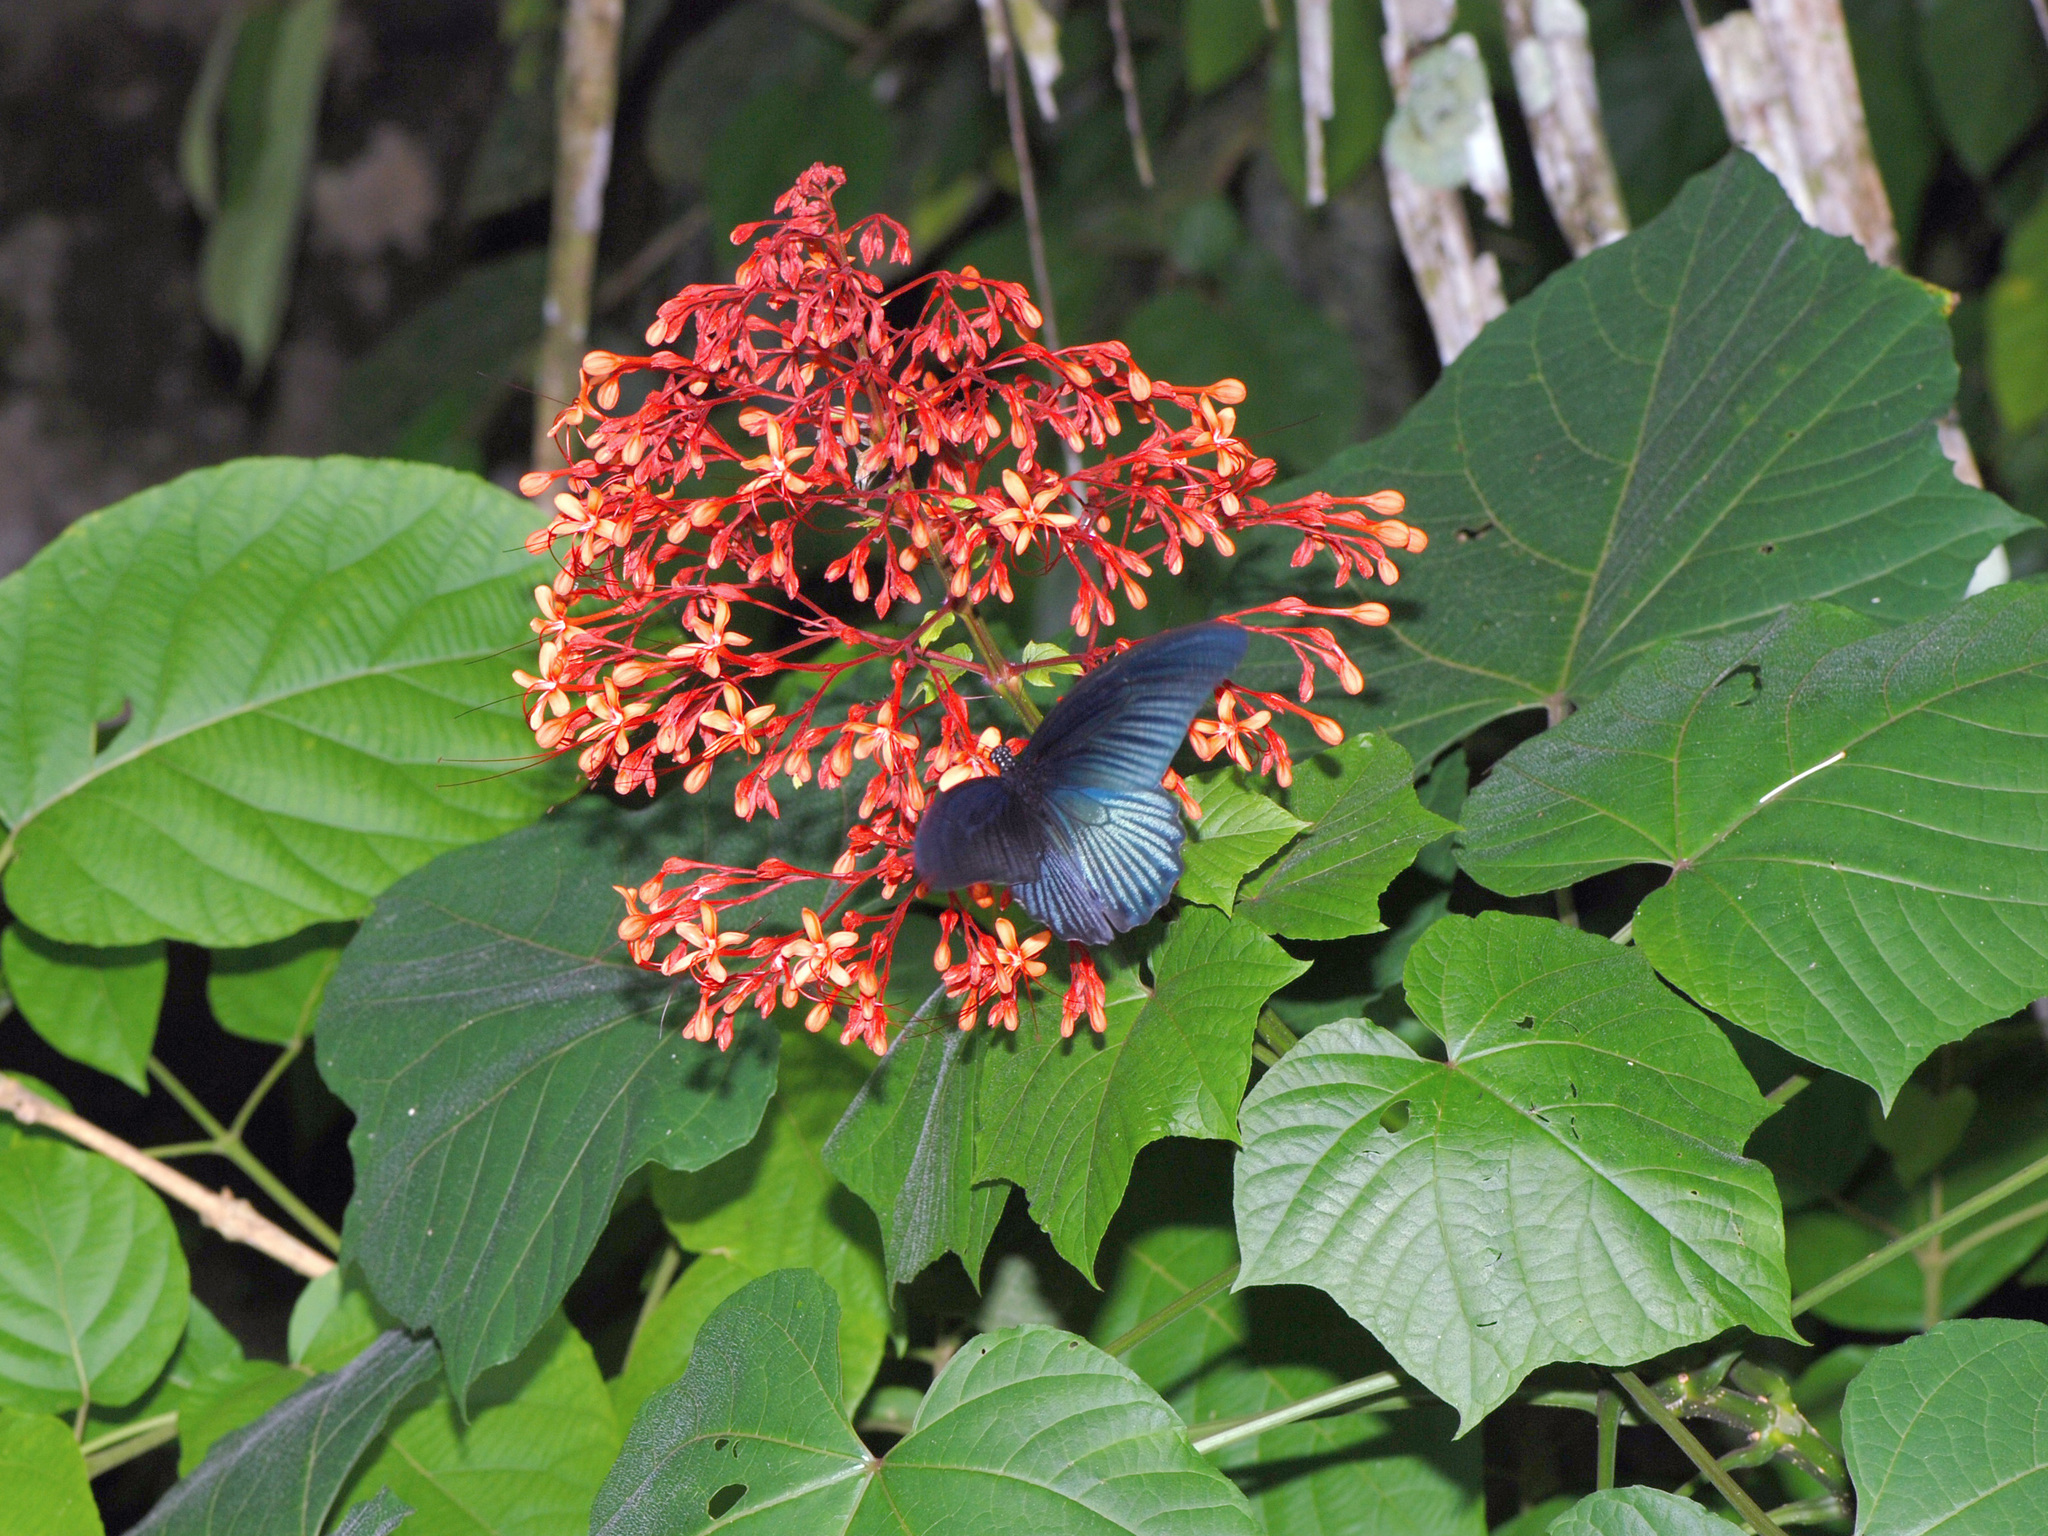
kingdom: Animalia
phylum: Arthropoda
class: Insecta
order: Lepidoptera
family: Papilionidae
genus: Papilio
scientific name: Papilio memnon
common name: Great mormon
